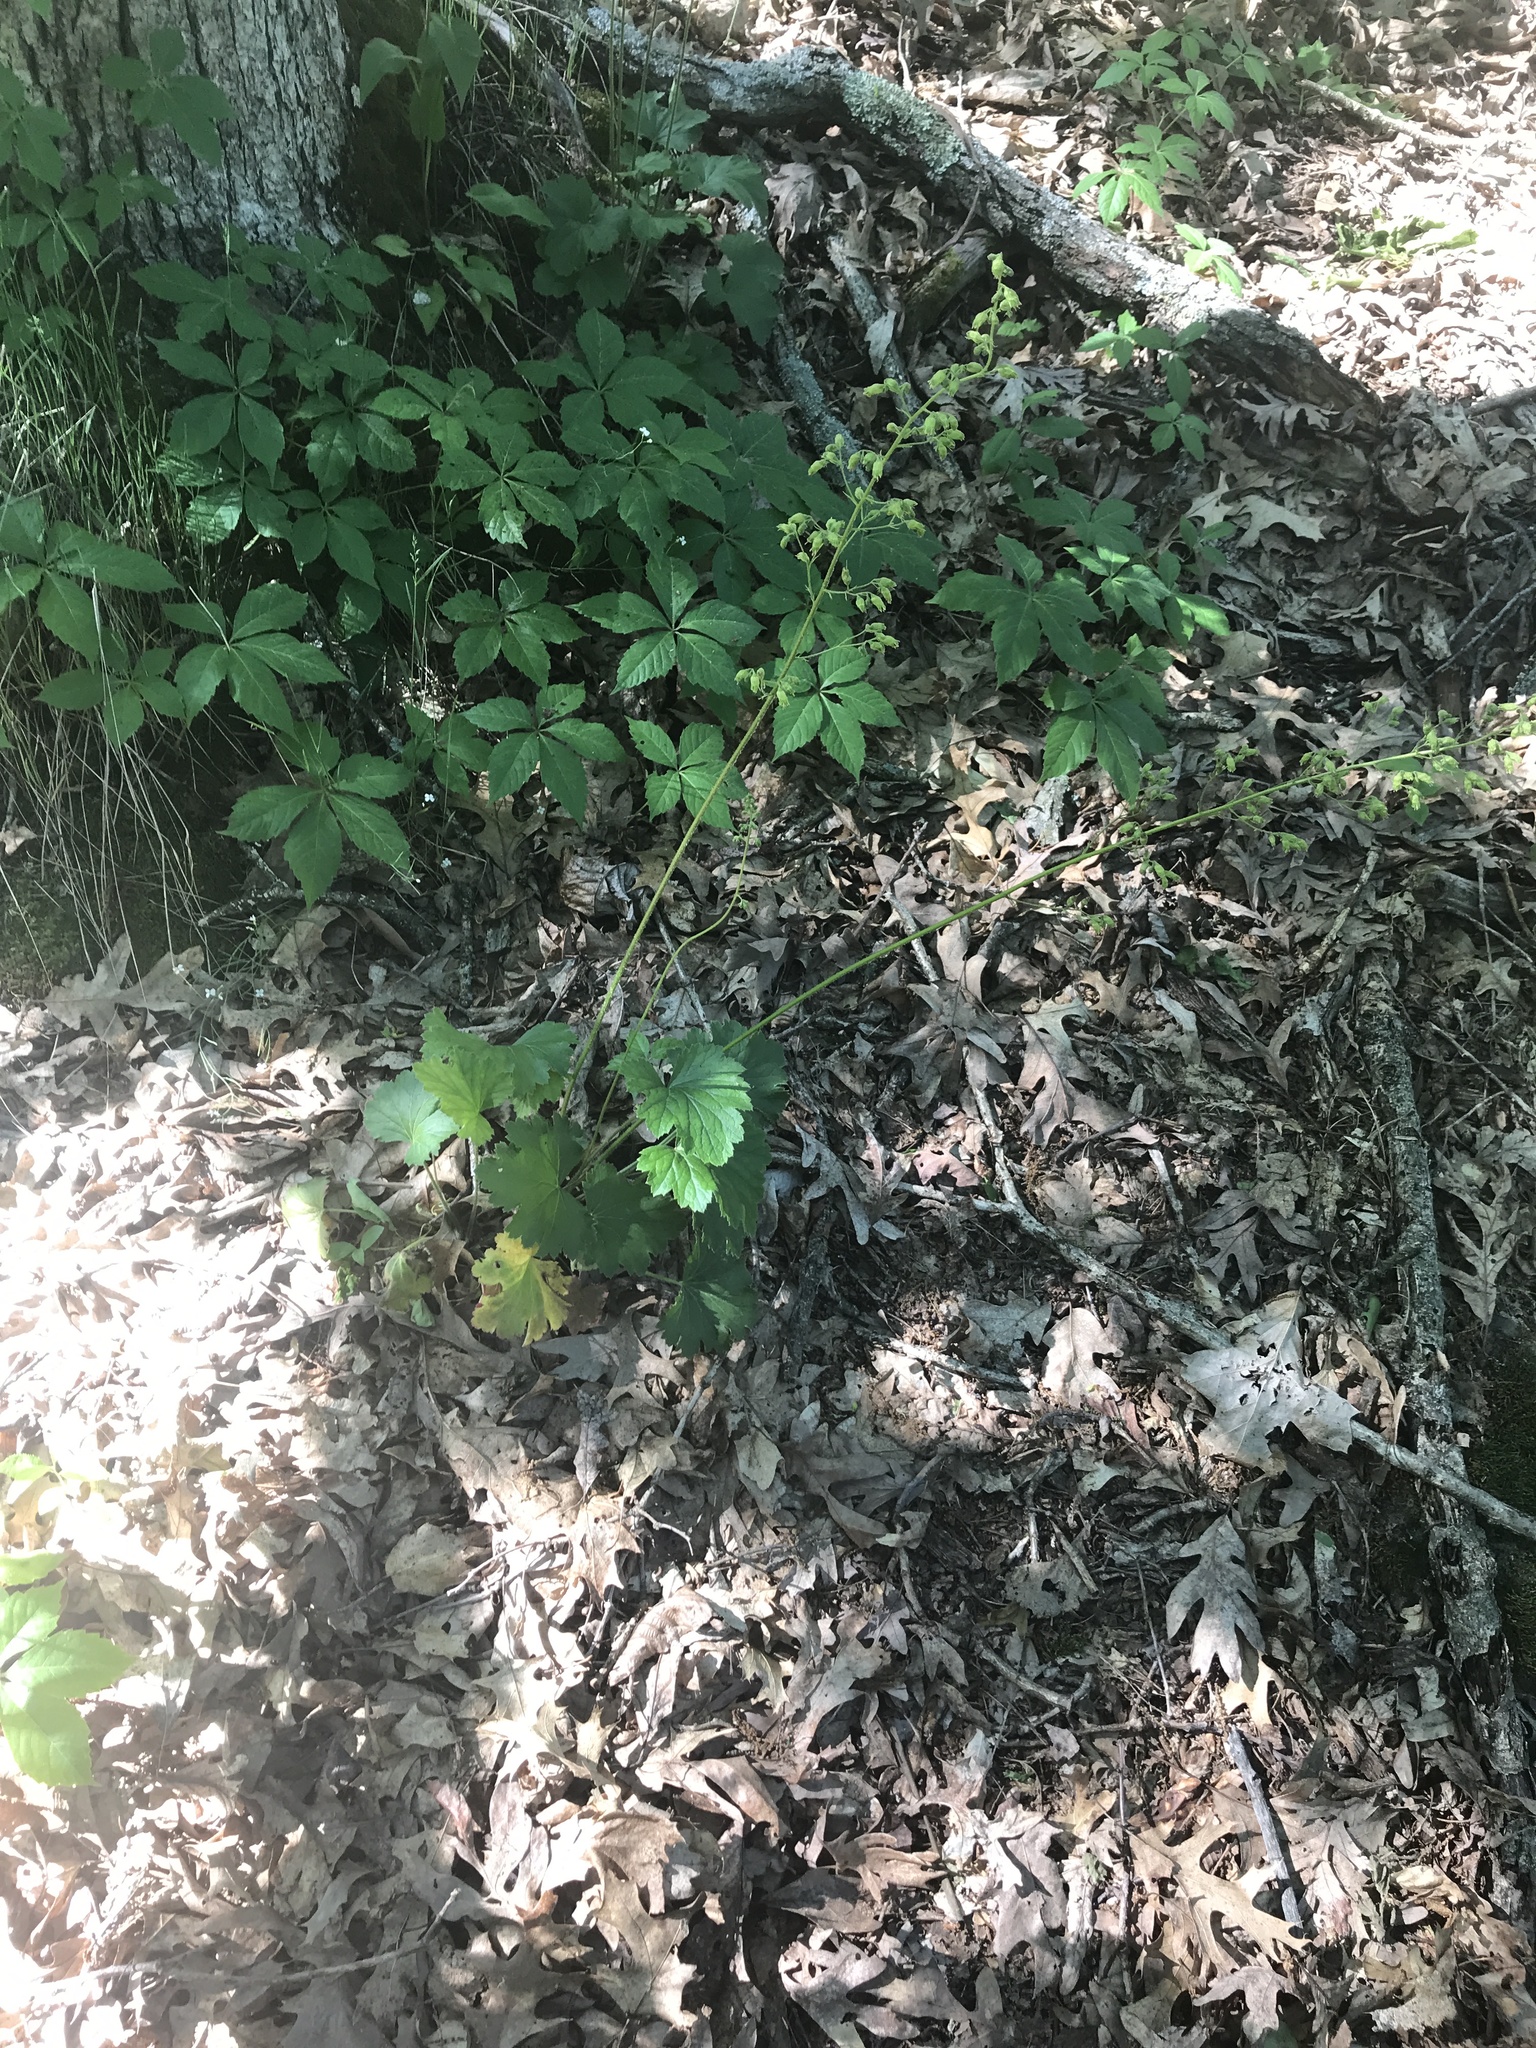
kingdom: Plantae
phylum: Tracheophyta
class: Magnoliopsida
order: Saxifragales
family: Saxifragaceae
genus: Heuchera
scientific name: Heuchera richardsonii
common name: Richardson's alumroot
